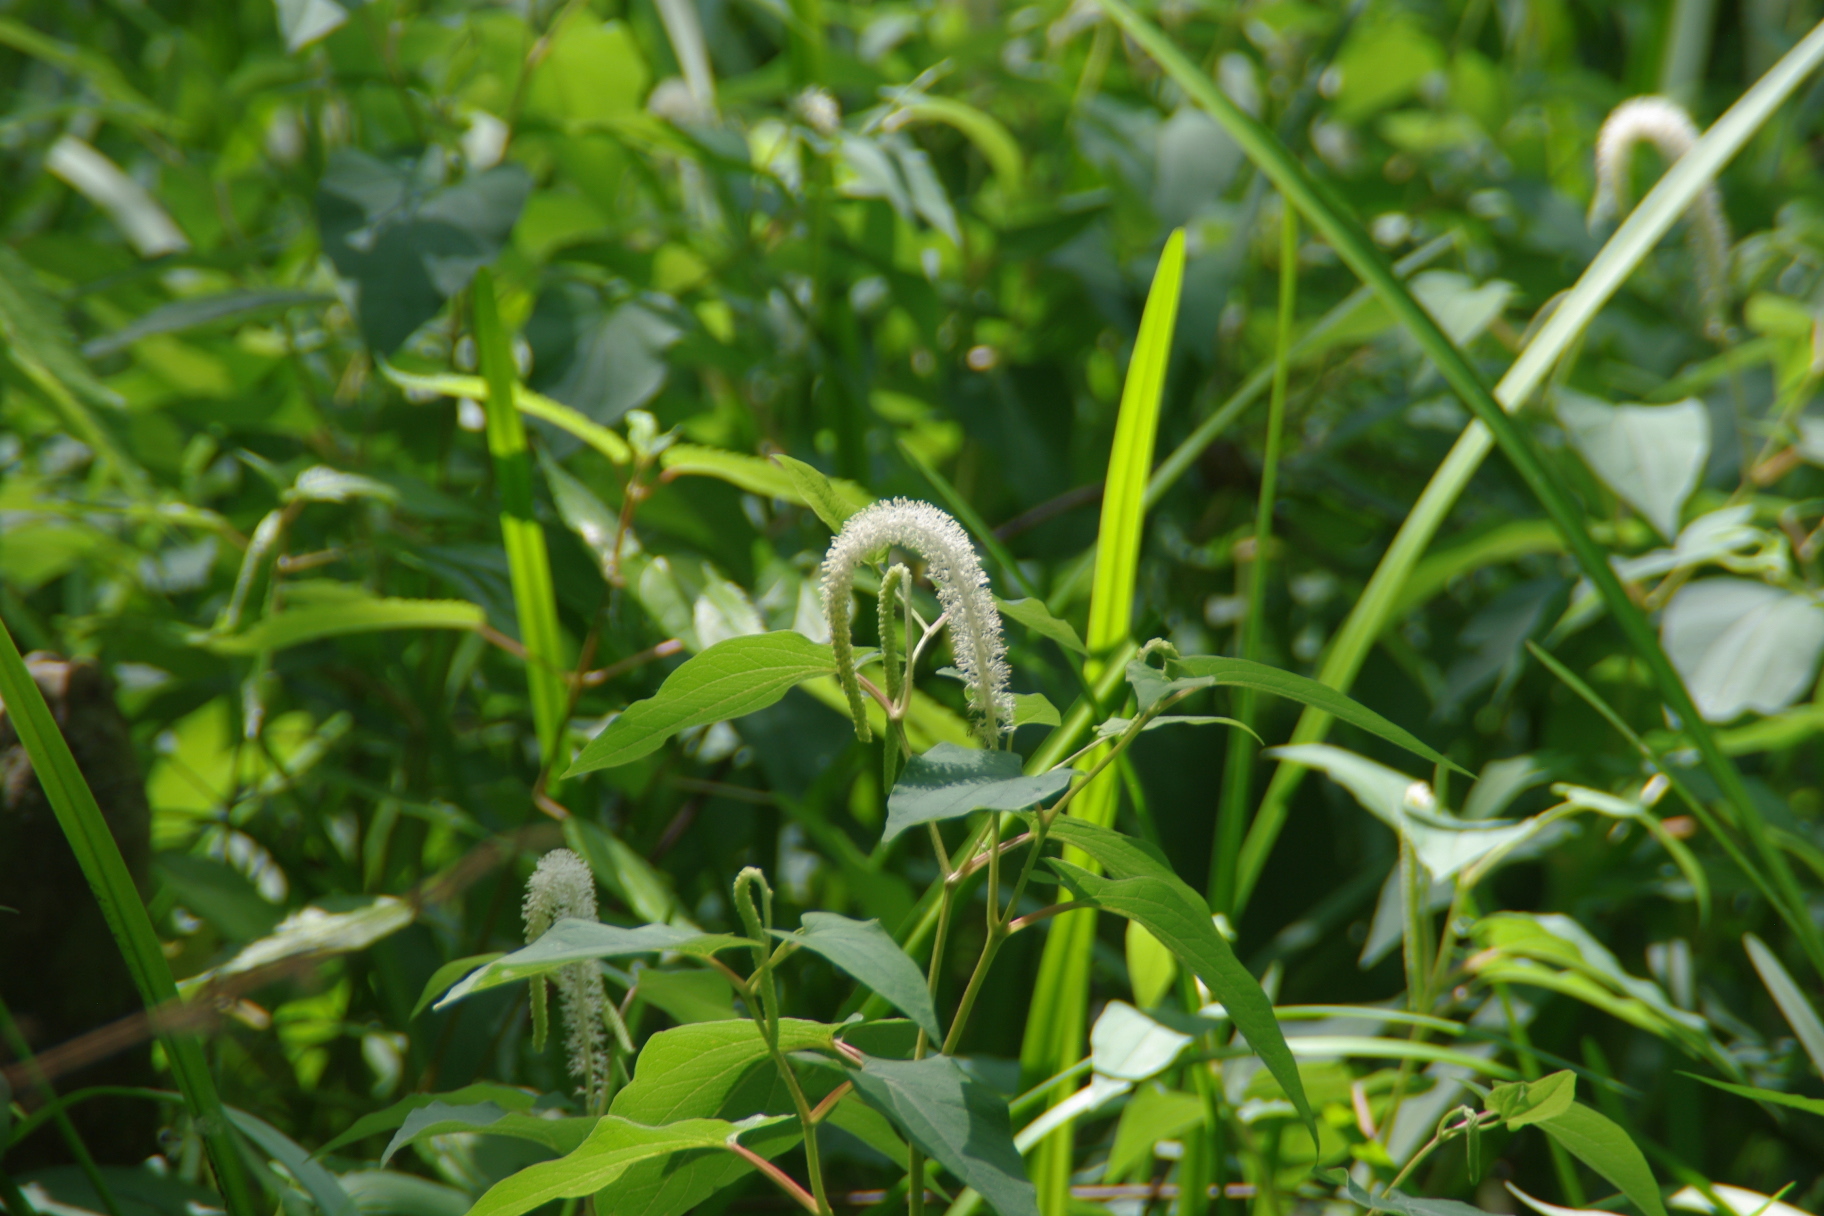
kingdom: Plantae
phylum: Tracheophyta
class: Magnoliopsida
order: Piperales
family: Saururaceae
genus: Saururus
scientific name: Saururus cernuus
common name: Lizard's-tail
